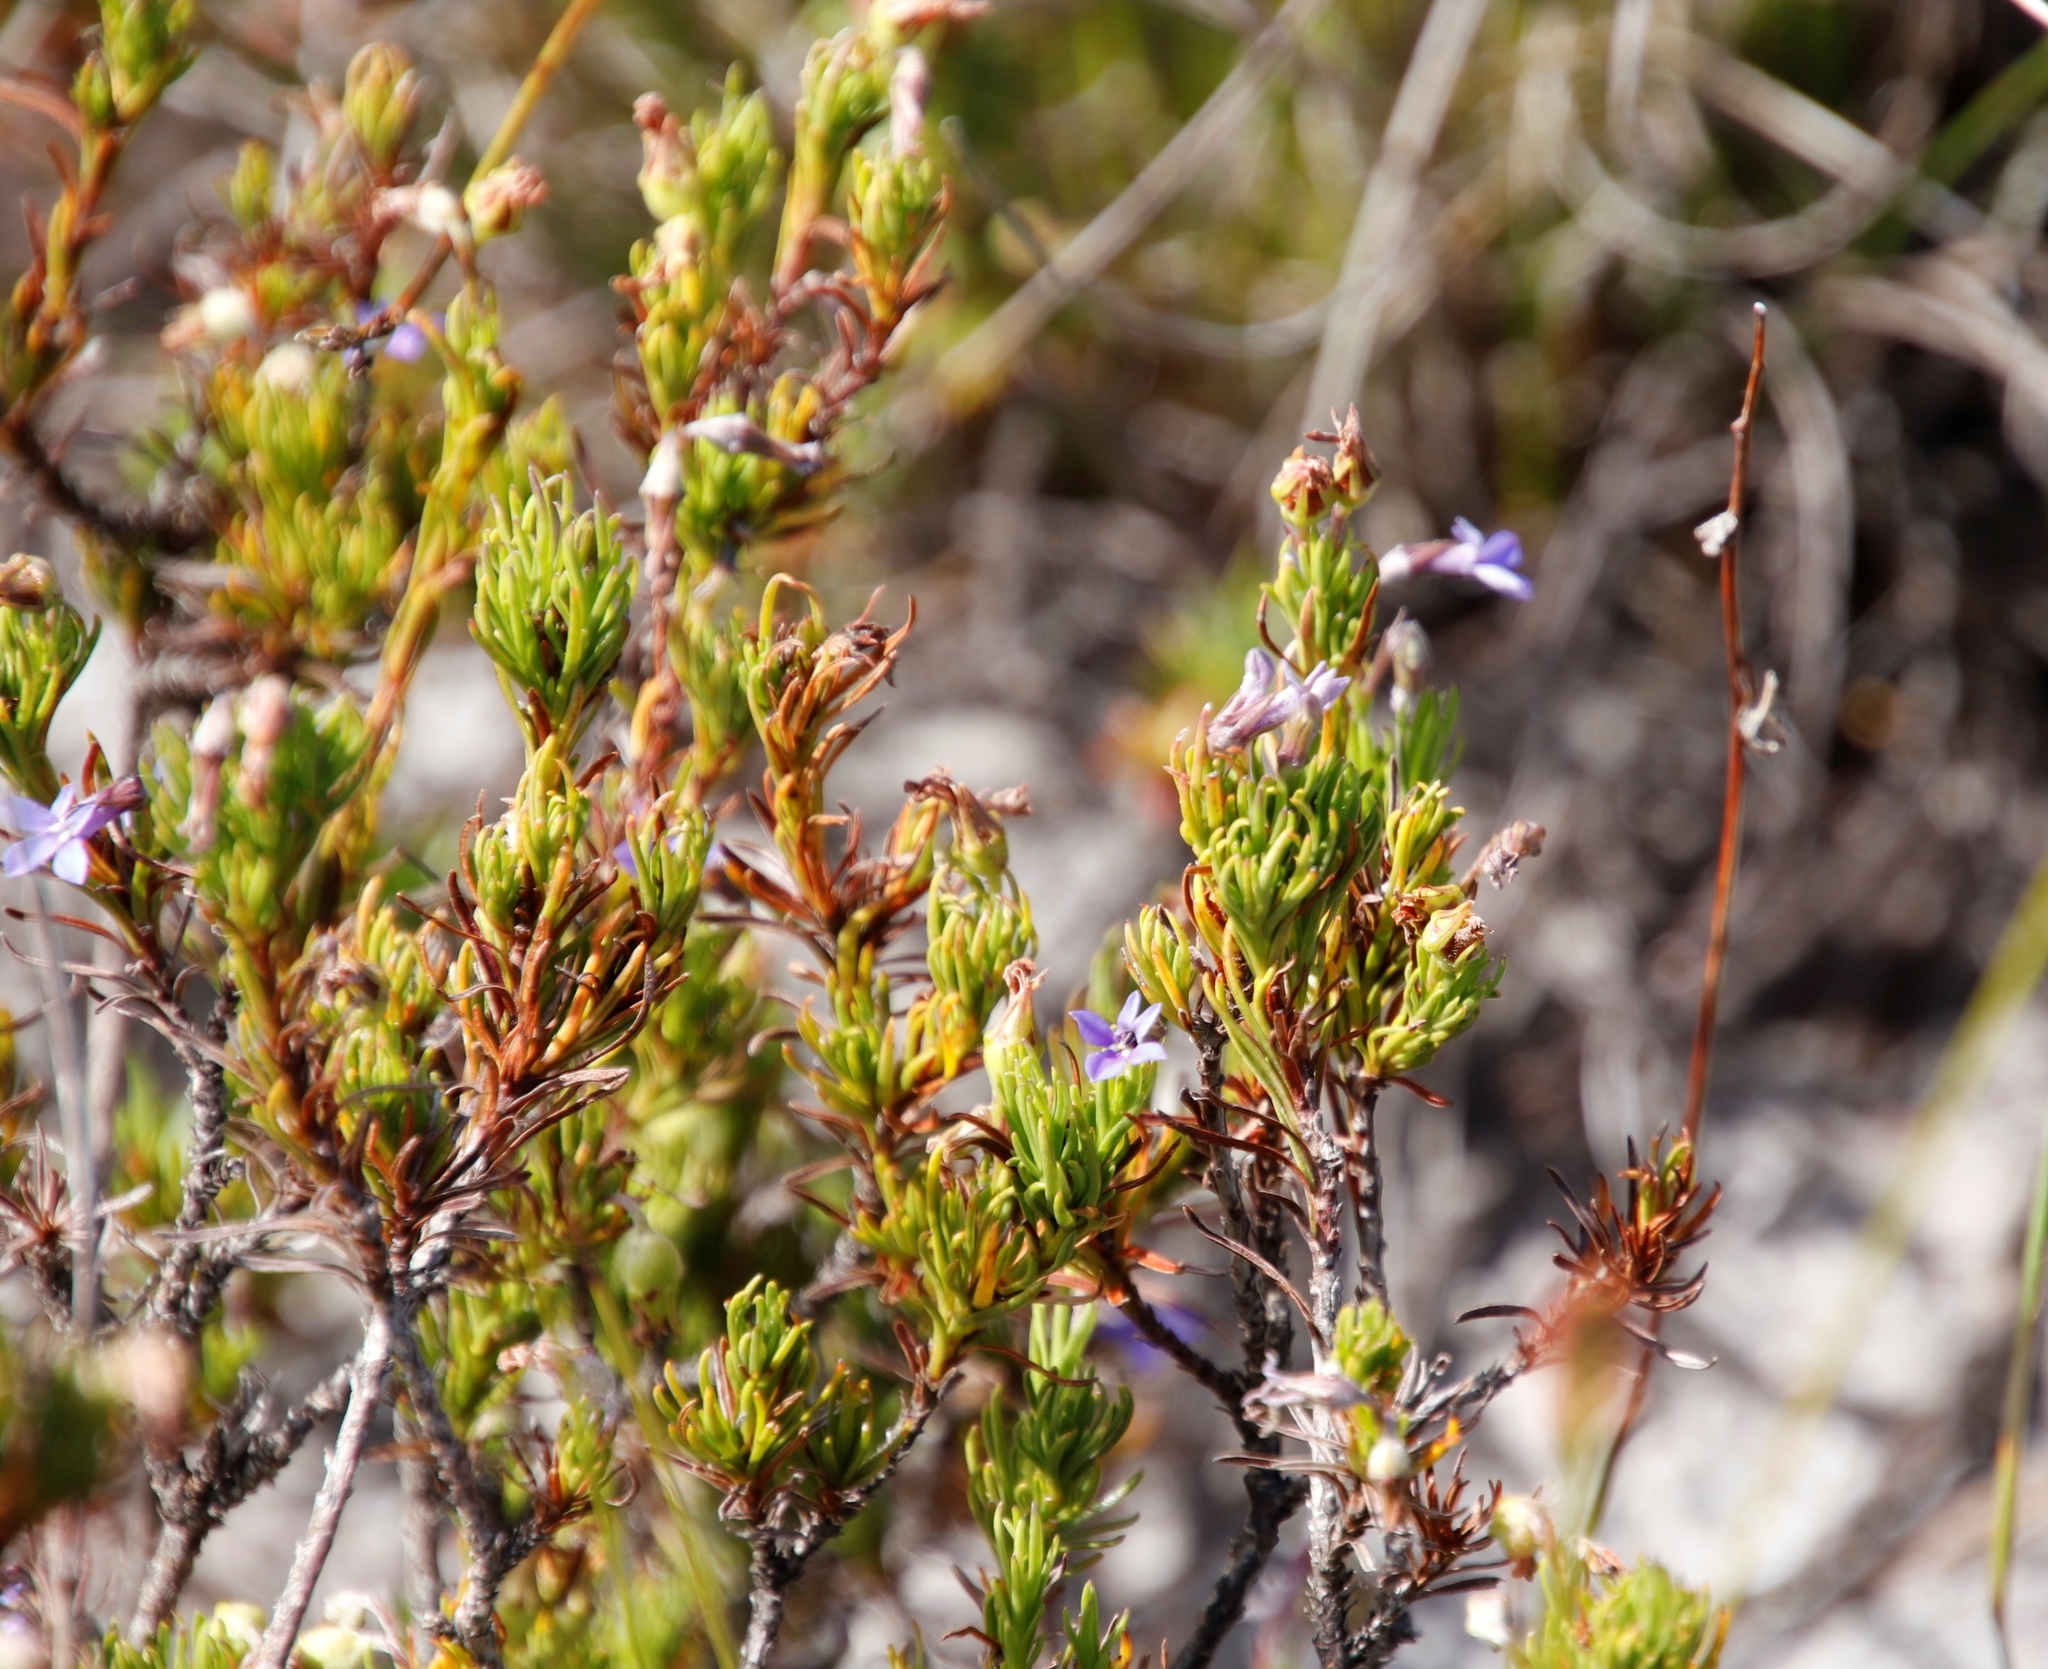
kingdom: Plantae
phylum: Tracheophyta
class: Magnoliopsida
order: Asterales
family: Campanulaceae
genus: Lobelia
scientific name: Lobelia pinifolia
